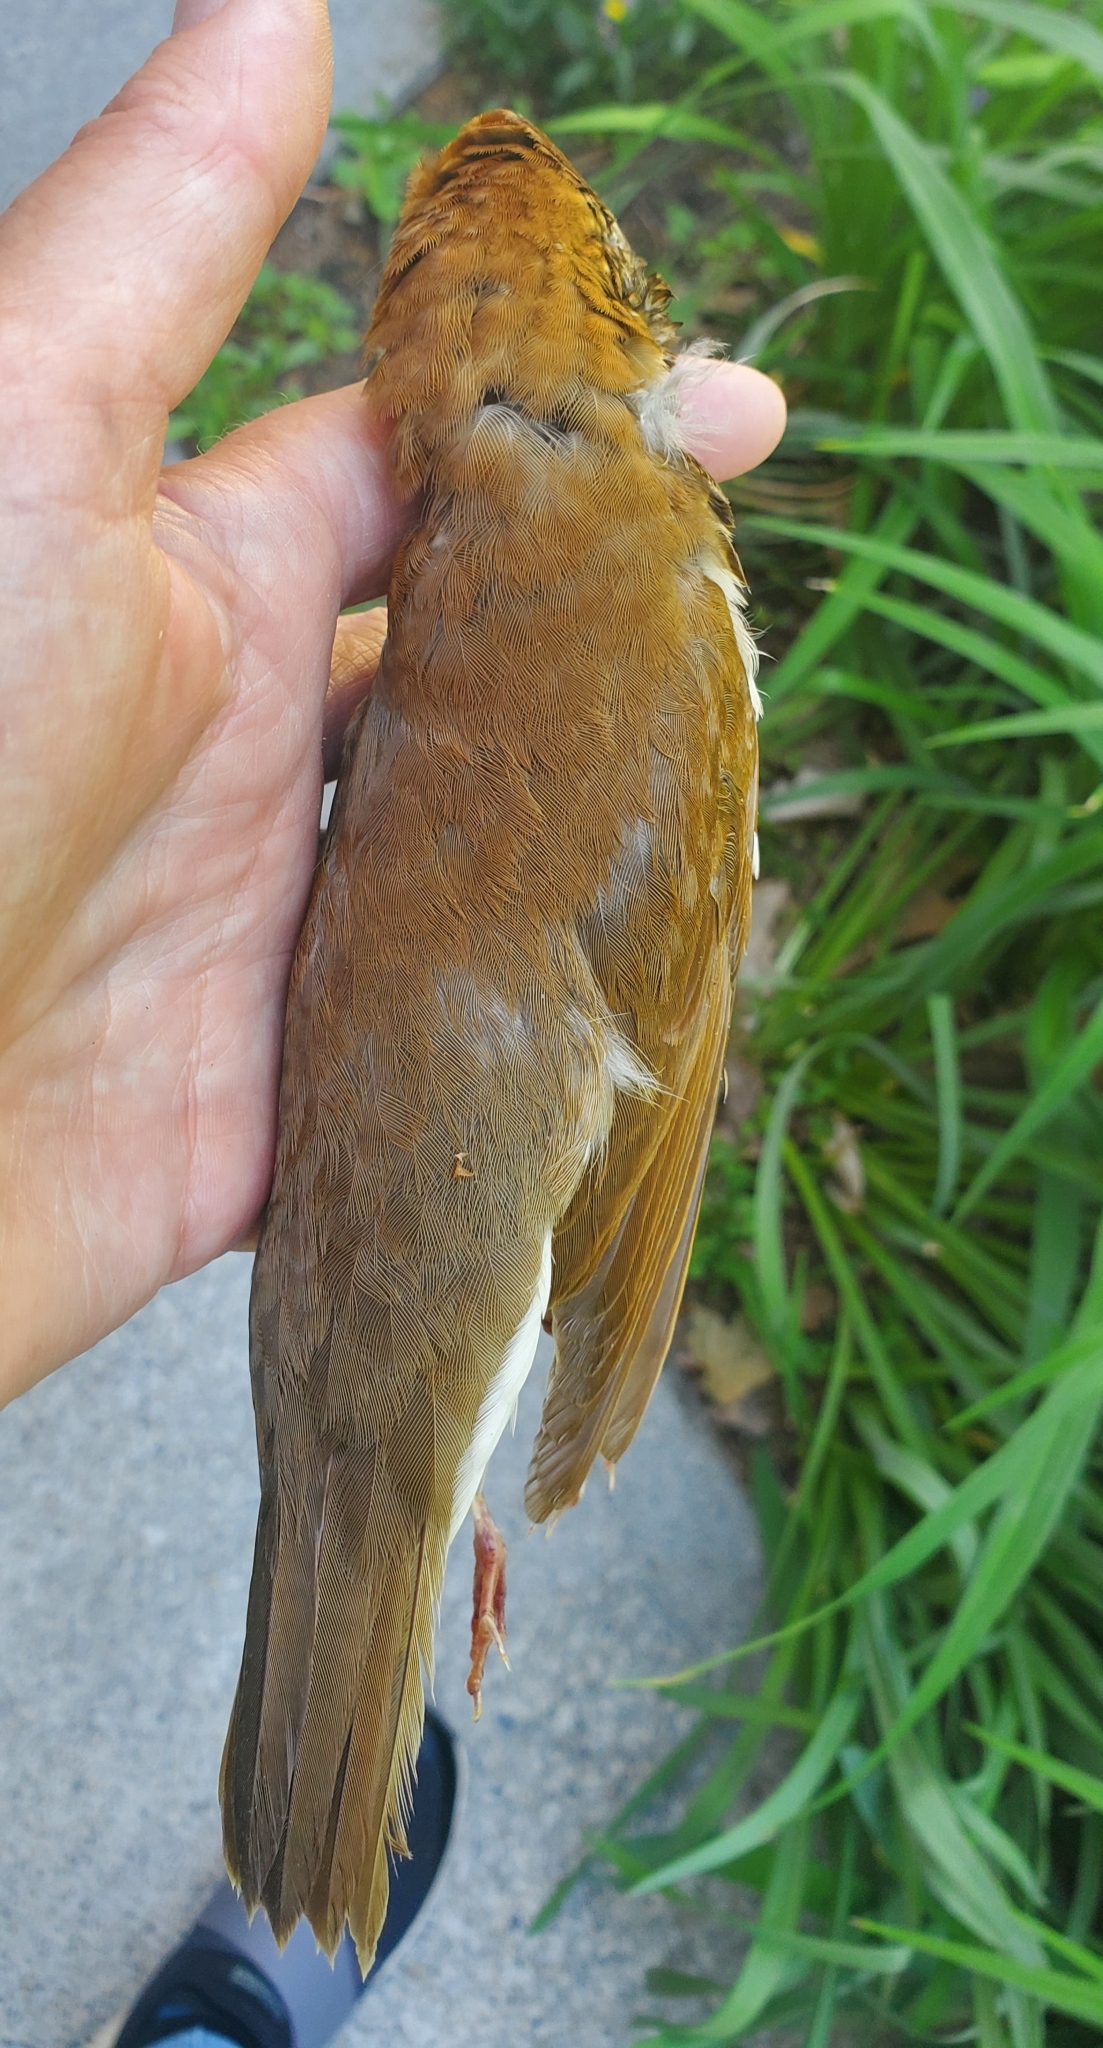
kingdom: Animalia
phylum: Chordata
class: Aves
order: Passeriformes
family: Turdidae
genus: Hylocichla
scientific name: Hylocichla mustelina
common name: Wood thrush
